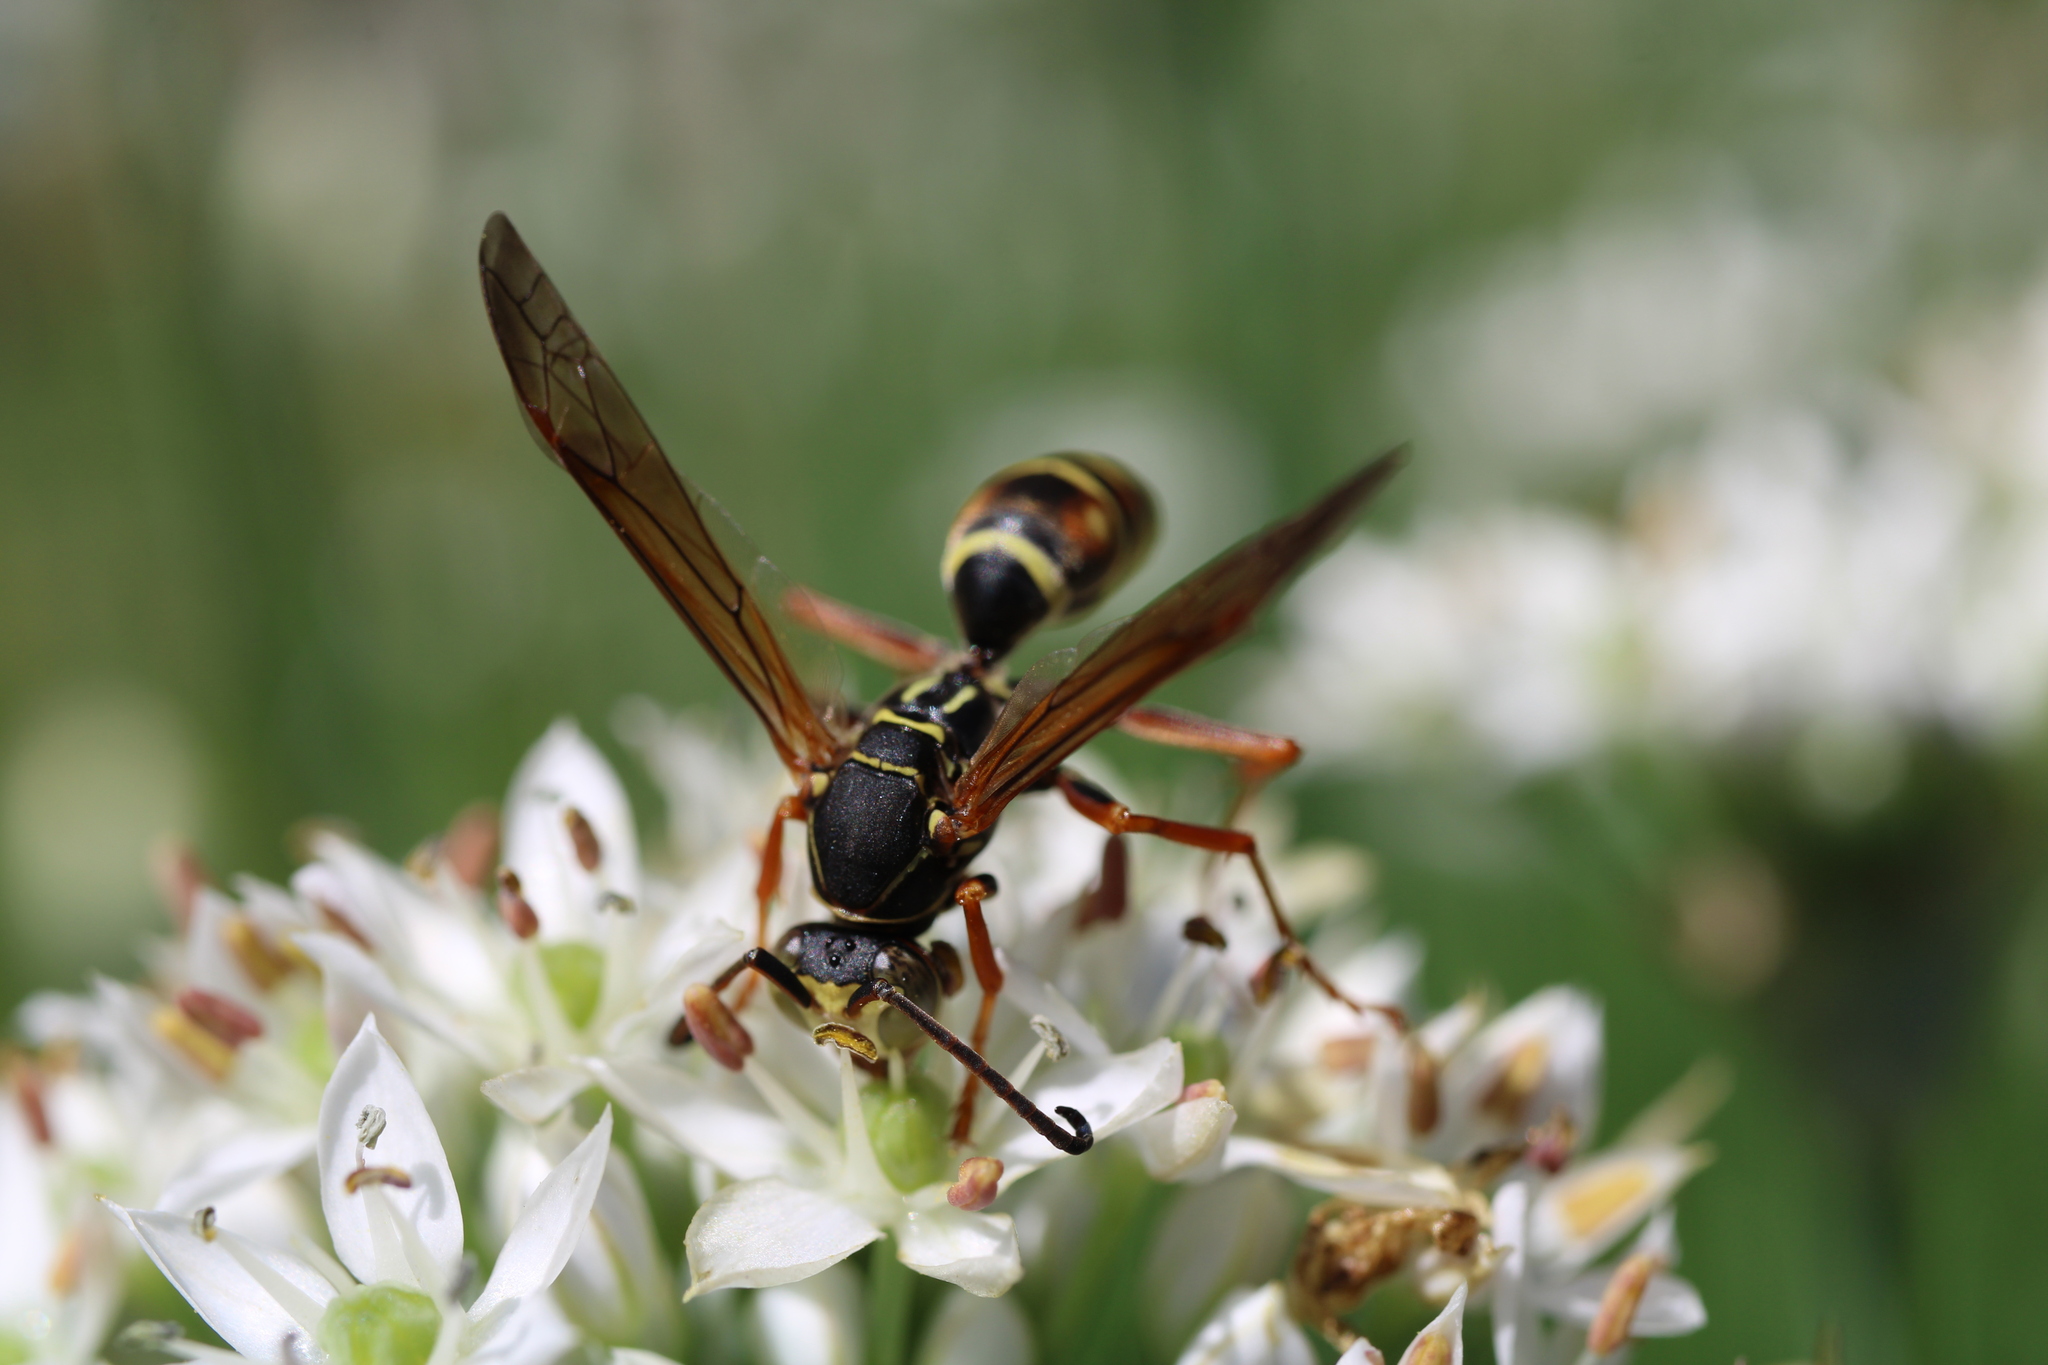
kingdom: Animalia
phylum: Arthropoda
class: Insecta
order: Hymenoptera
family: Eumenidae
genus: Polistes
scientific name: Polistes fuscatus
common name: Dark paper wasp
